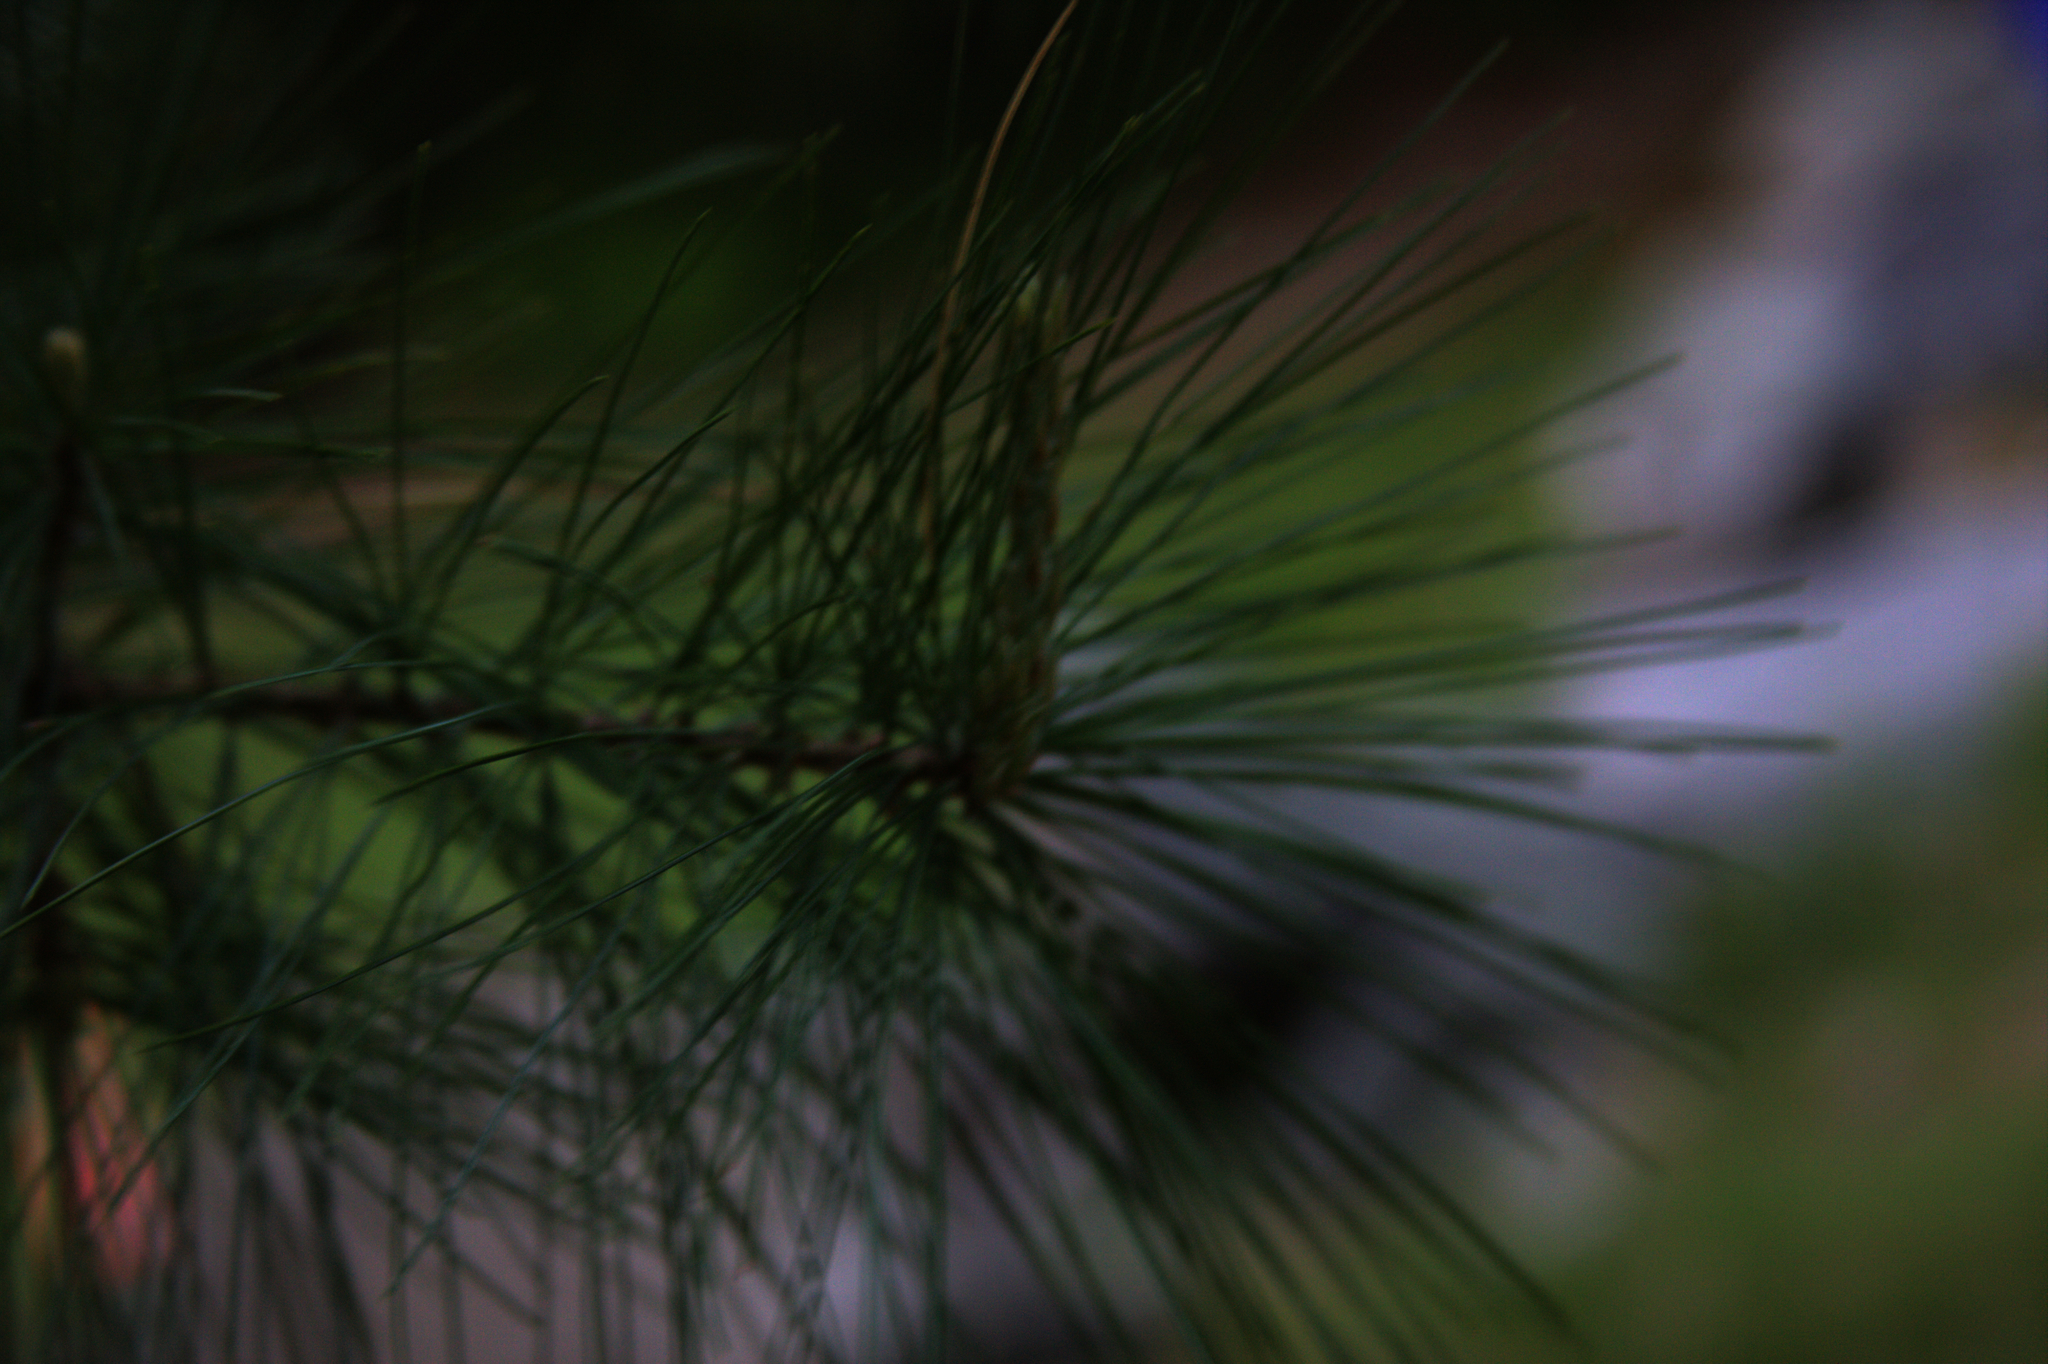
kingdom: Plantae
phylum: Tracheophyta
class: Pinopsida
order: Pinales
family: Pinaceae
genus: Pinus
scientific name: Pinus strobus
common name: Weymouth pine
